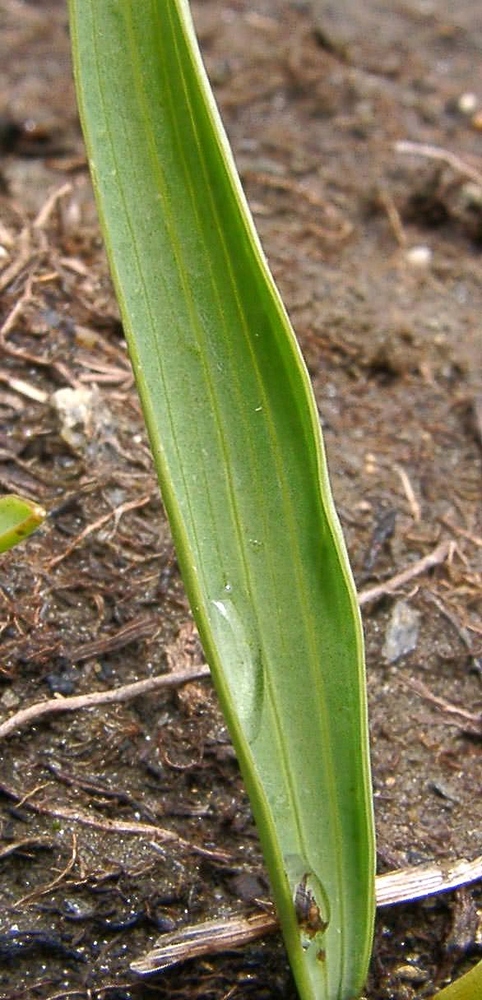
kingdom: Plantae
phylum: Tracheophyta
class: Magnoliopsida
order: Ranunculales
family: Ranunculaceae
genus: Ranunculus
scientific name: Ranunculus kuepferi
